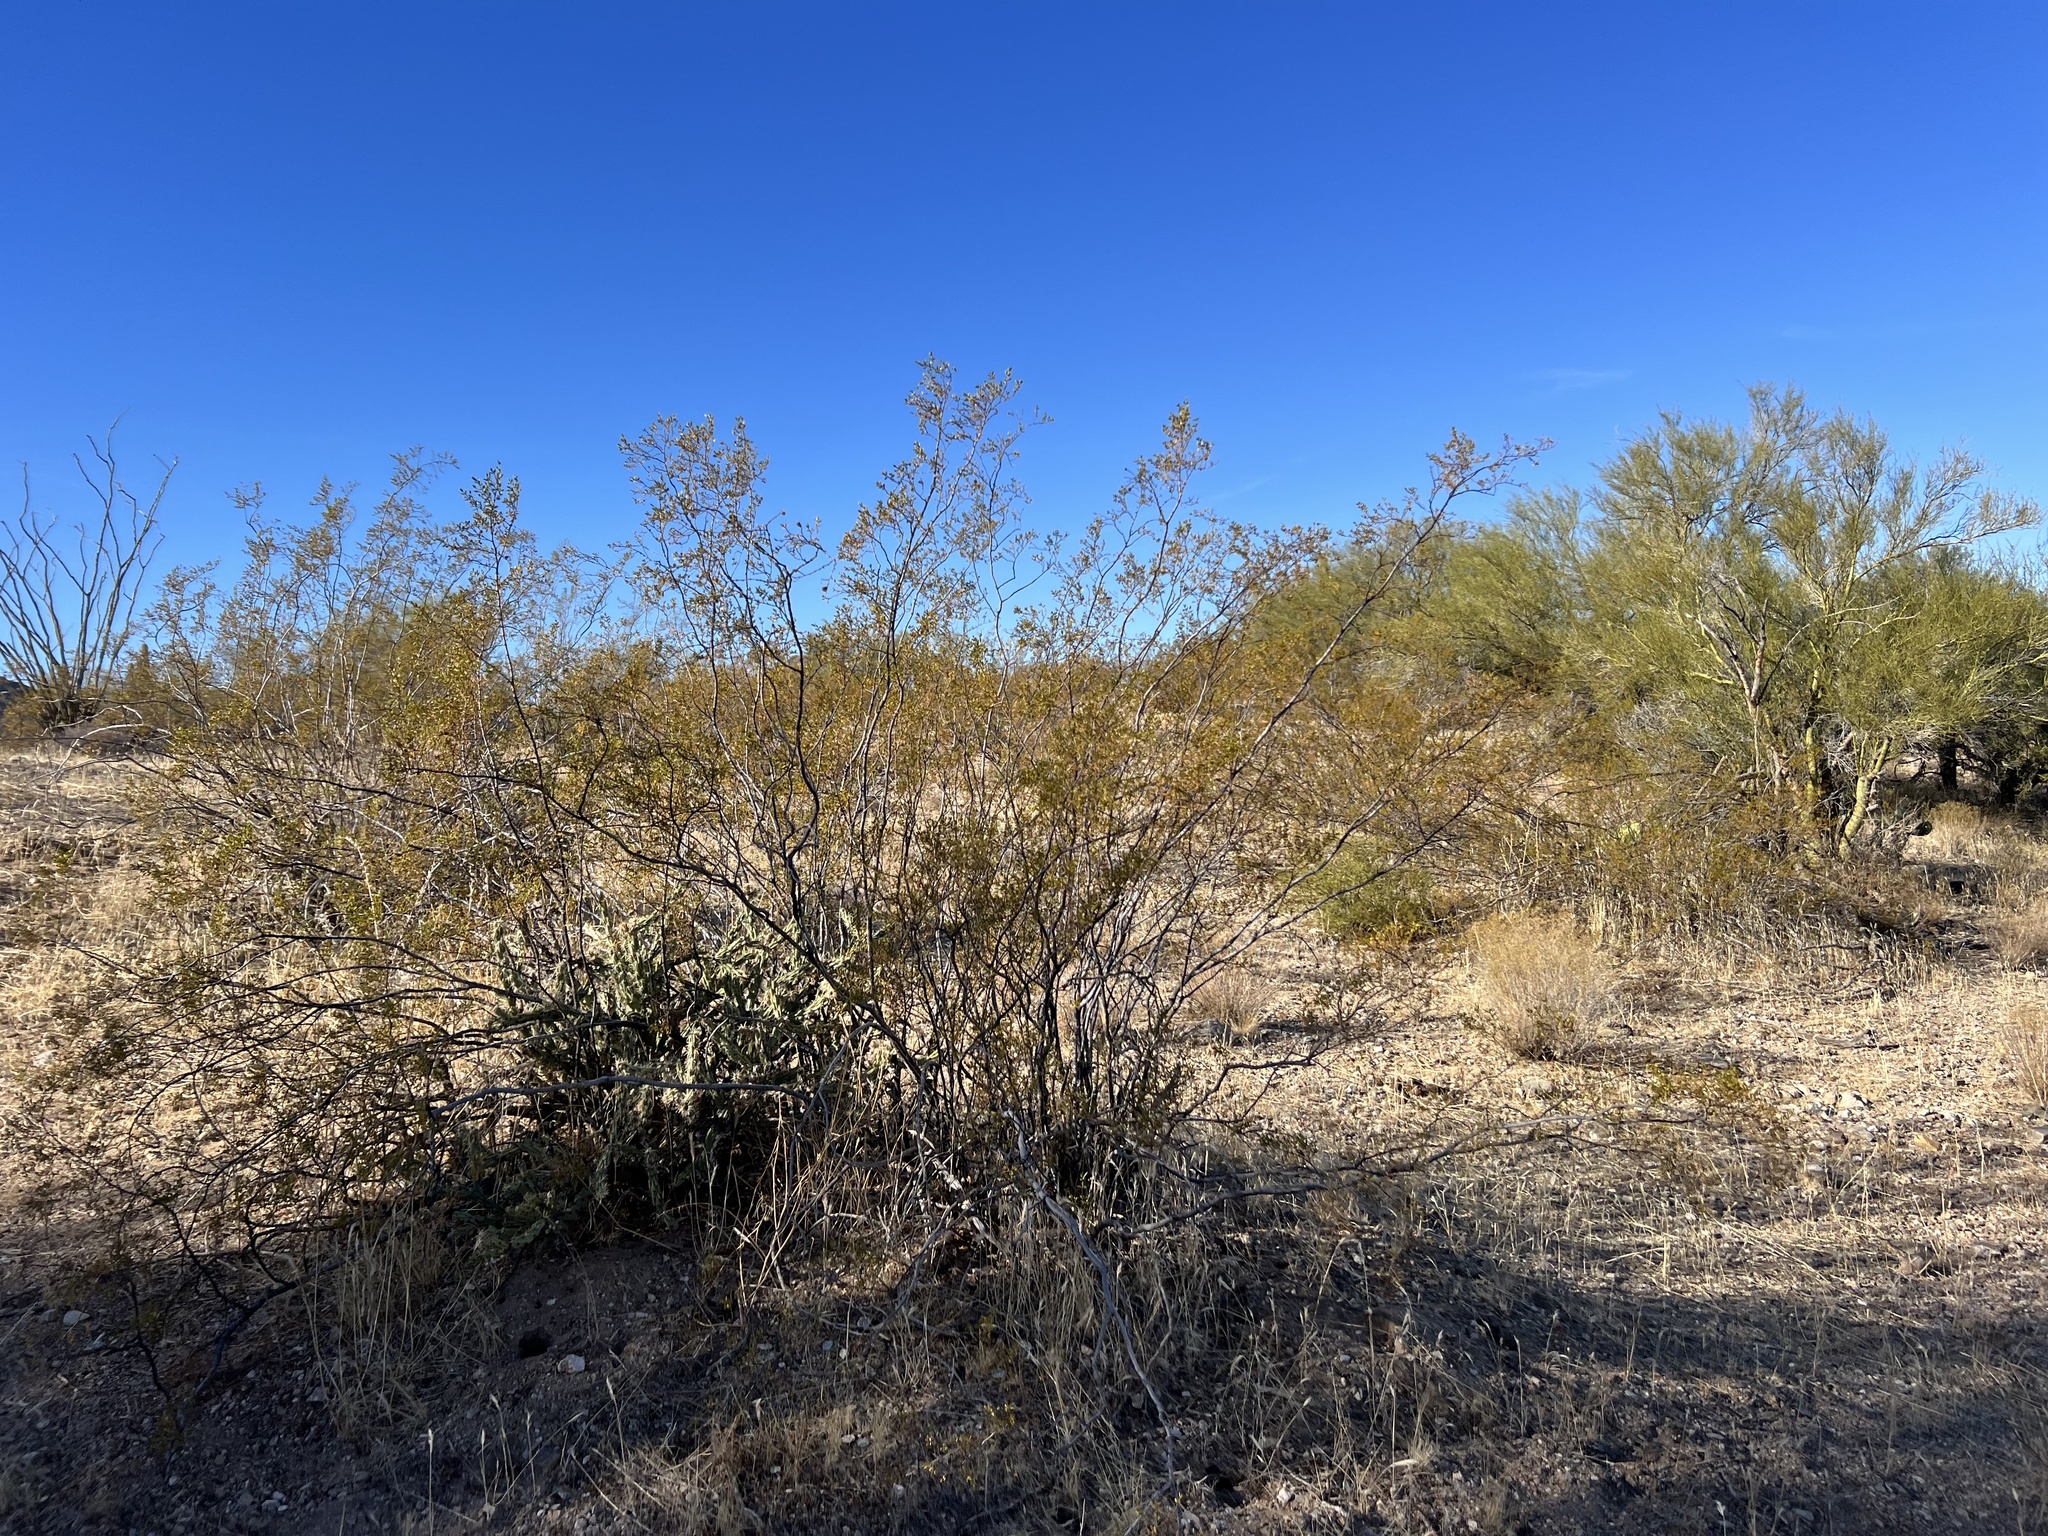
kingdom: Plantae
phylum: Tracheophyta
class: Magnoliopsida
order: Zygophyllales
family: Zygophyllaceae
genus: Larrea
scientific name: Larrea tridentata
